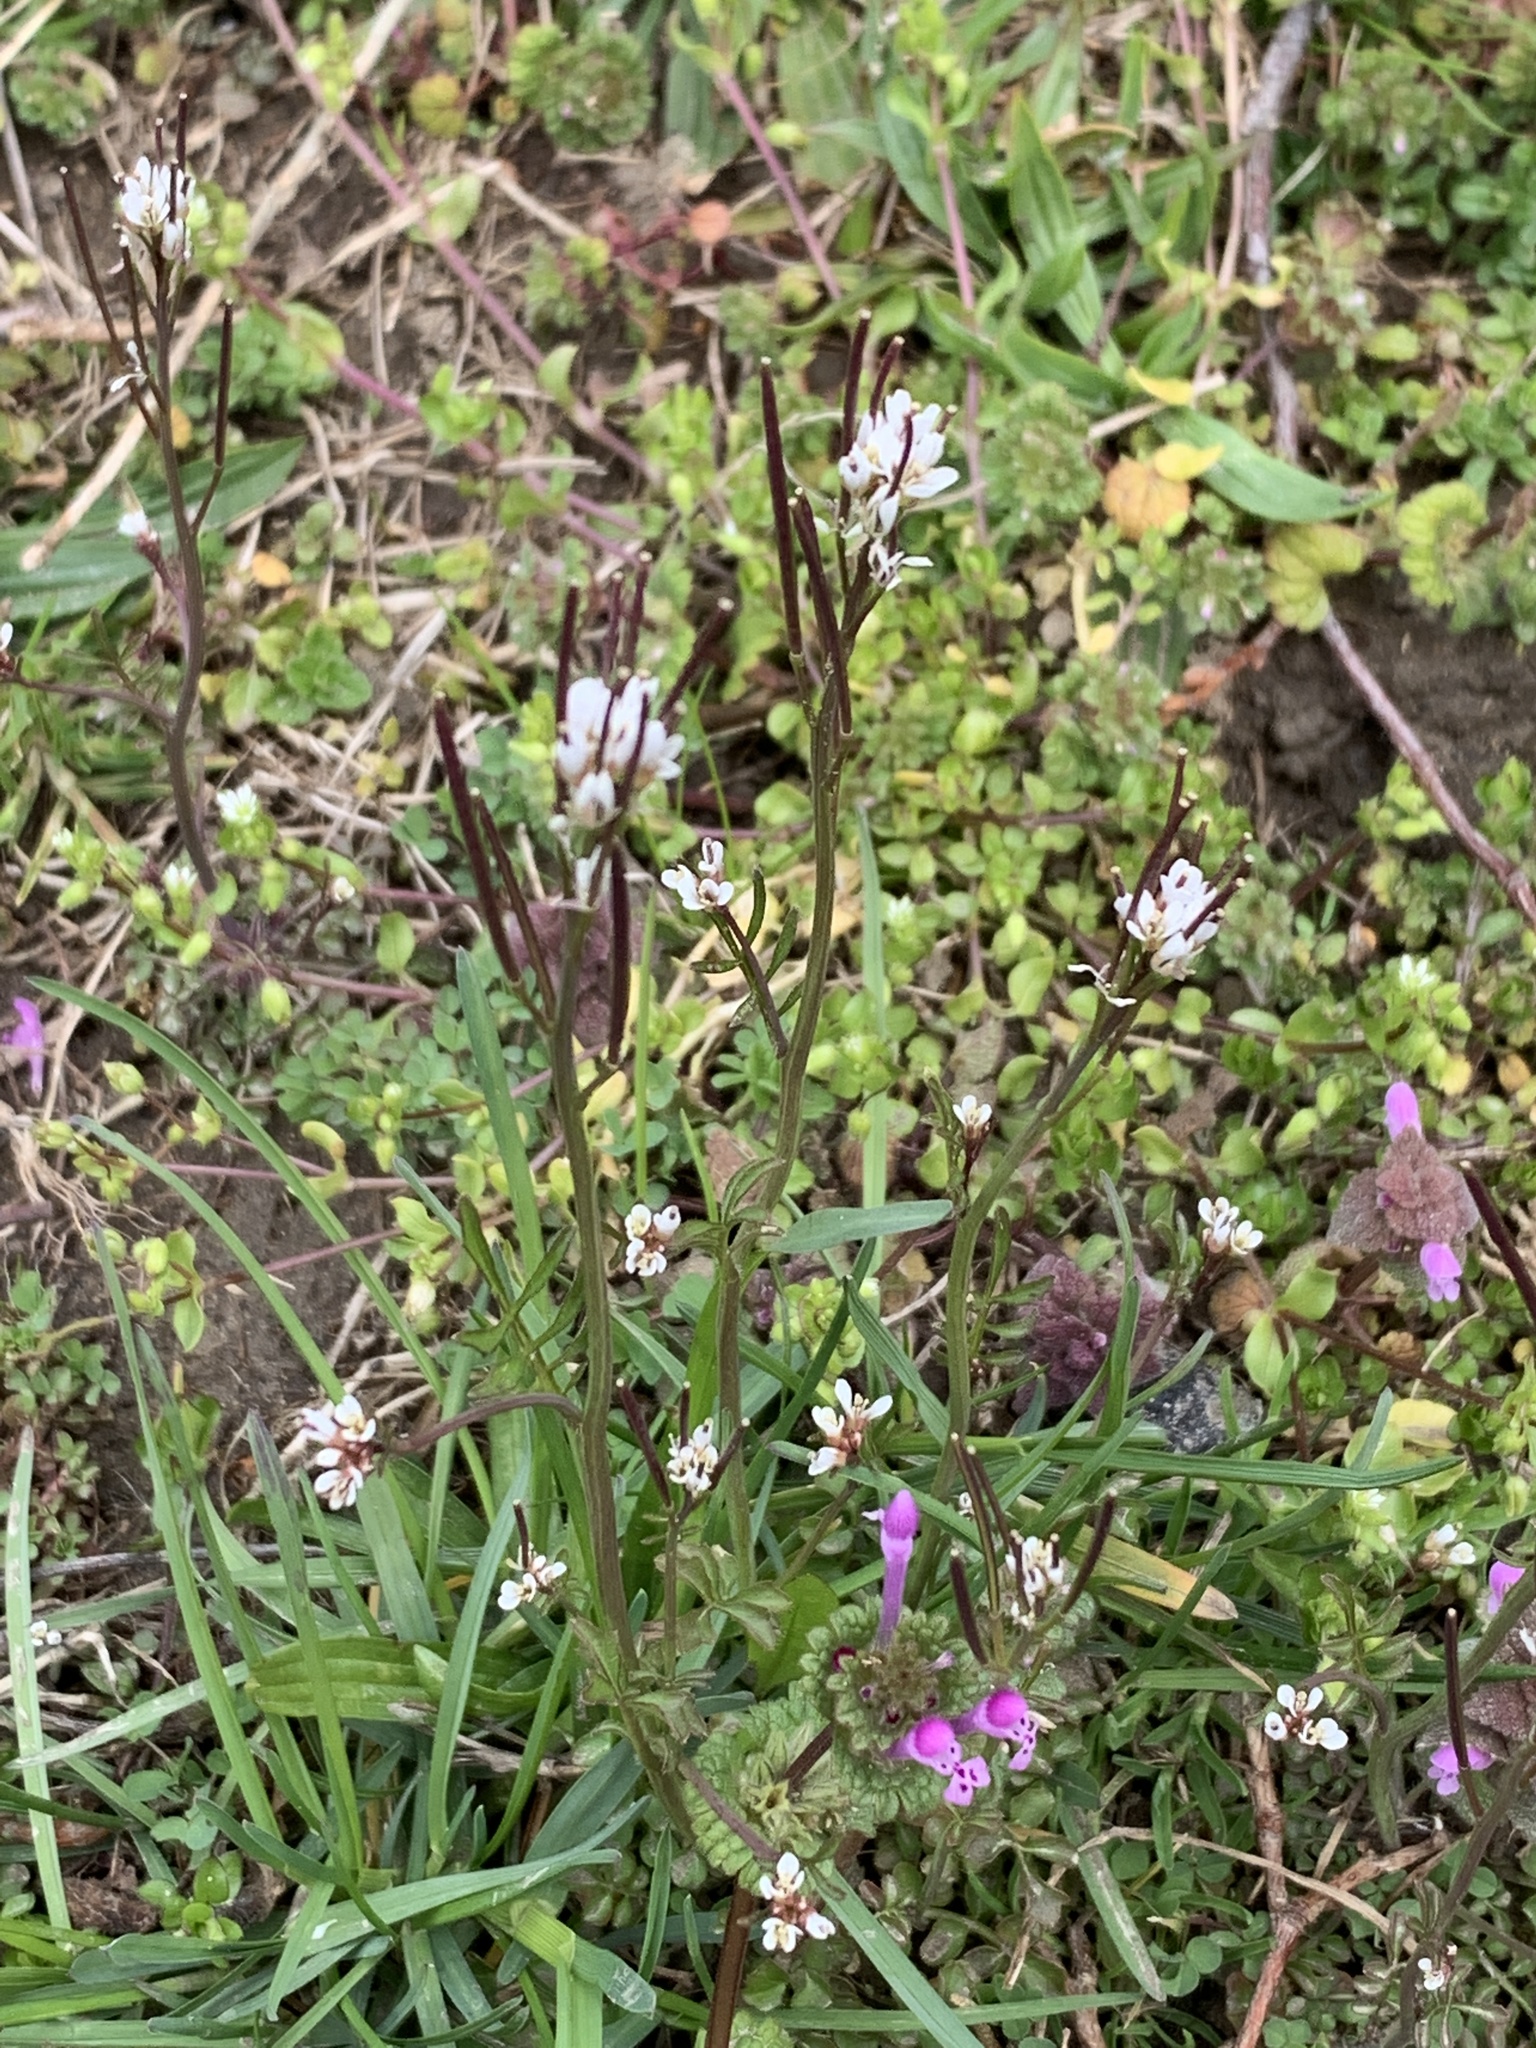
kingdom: Plantae
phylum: Tracheophyta
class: Magnoliopsida
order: Brassicales
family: Brassicaceae
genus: Cardamine
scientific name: Cardamine hirsuta
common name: Hairy bittercress
